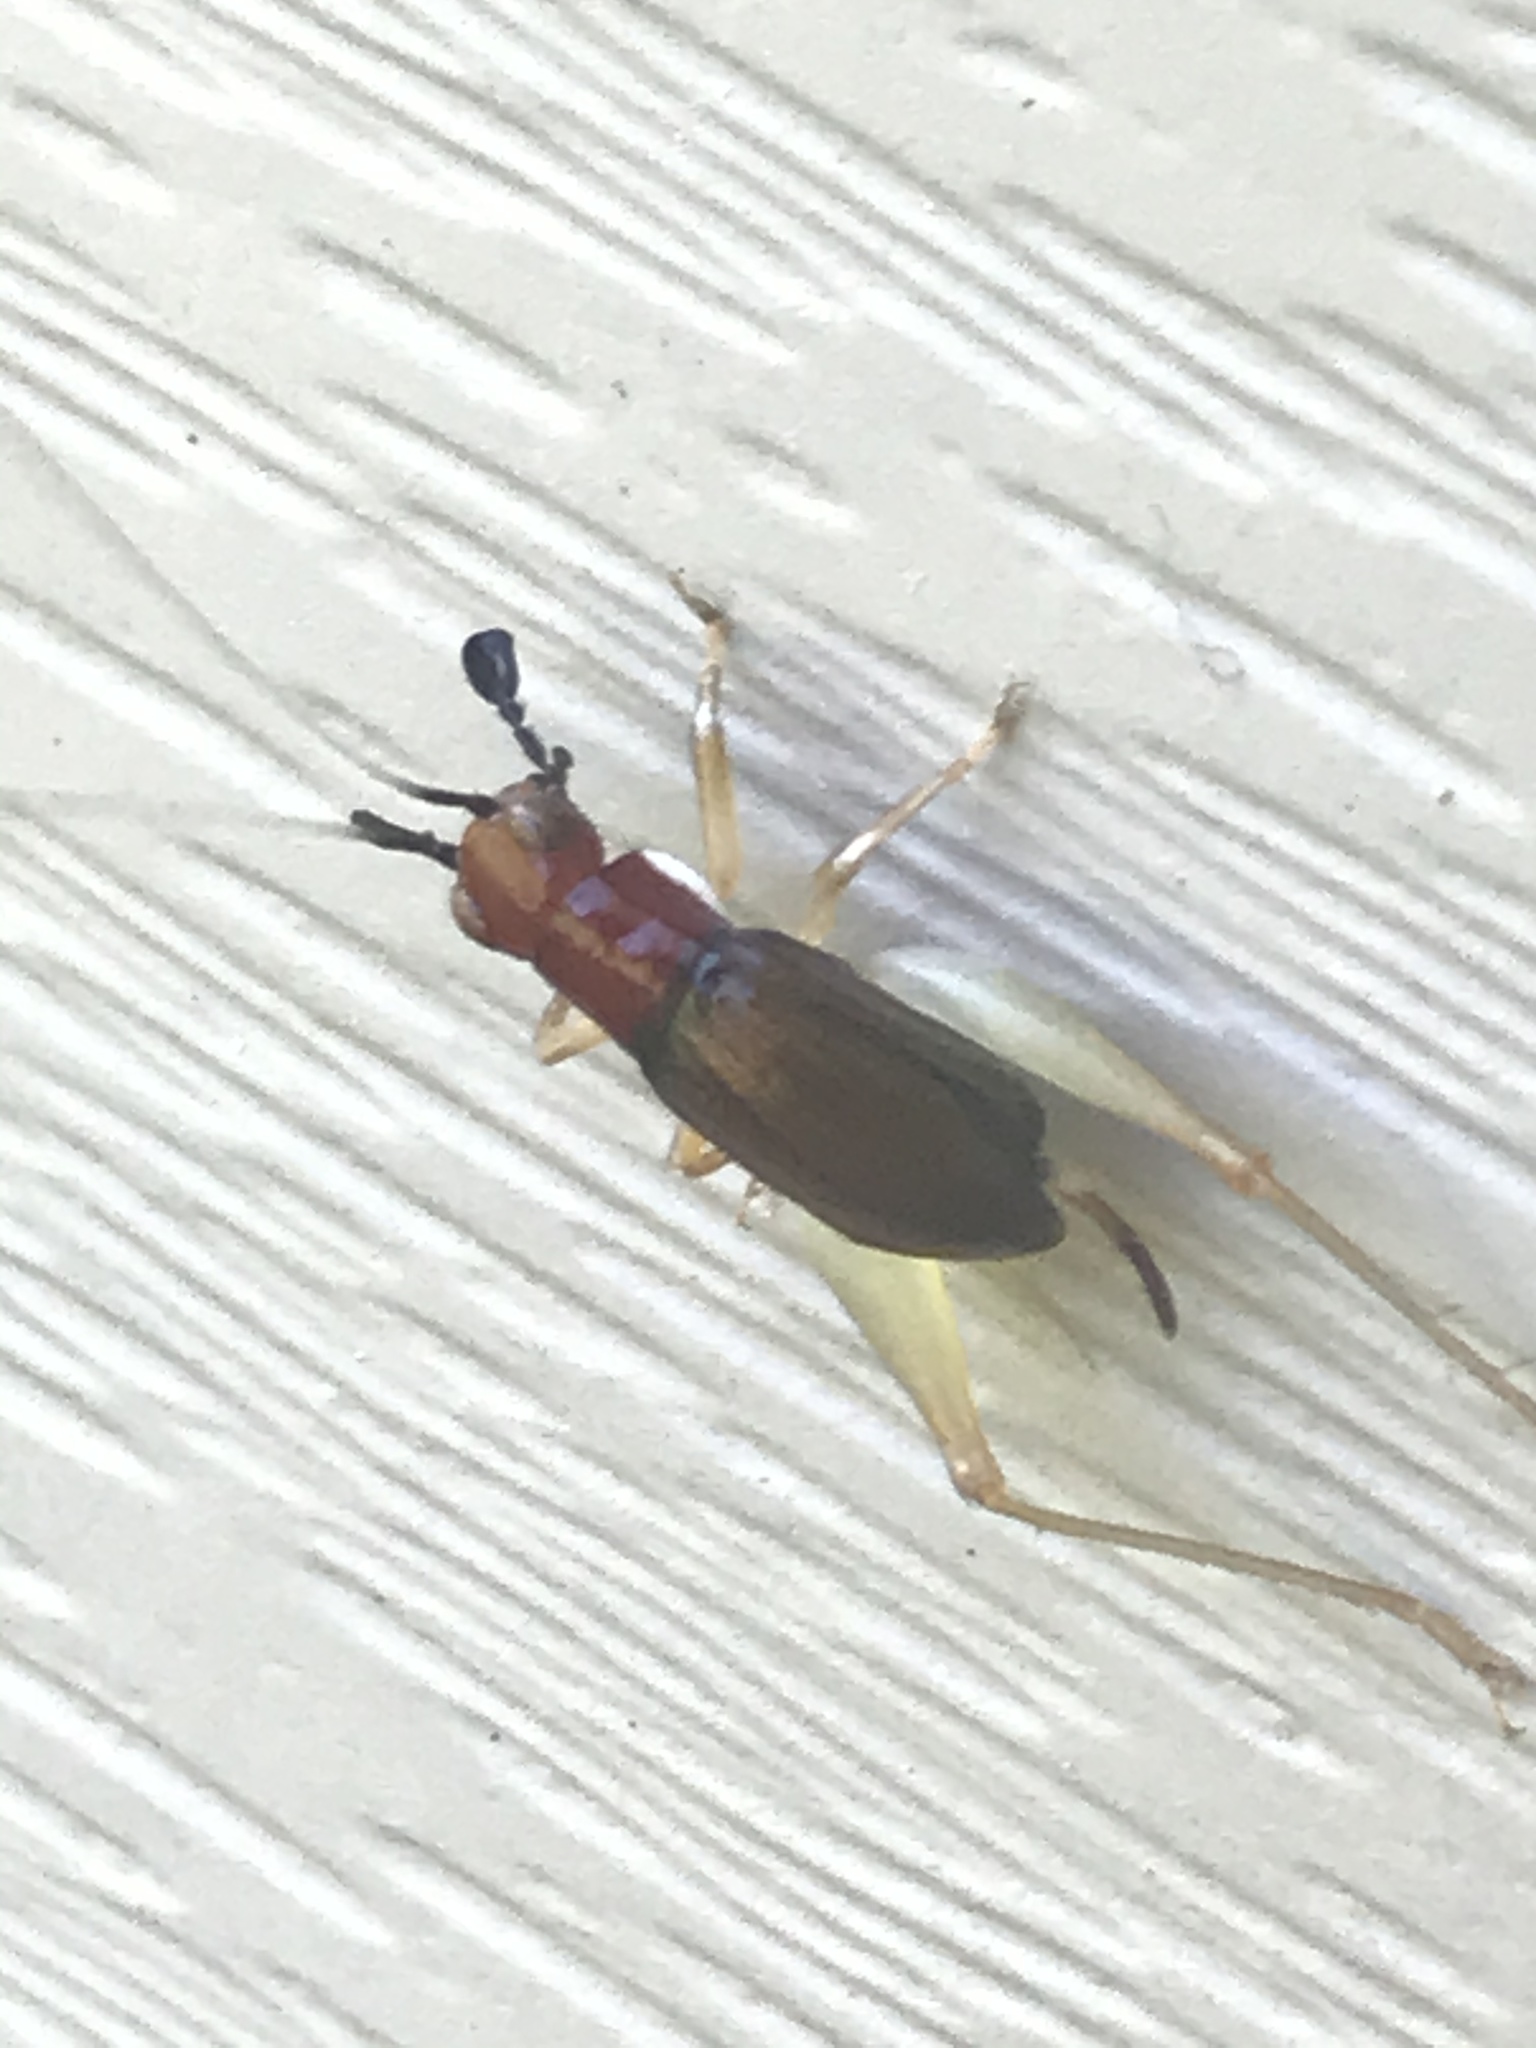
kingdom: Animalia
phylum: Arthropoda
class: Insecta
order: Orthoptera
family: Trigonidiidae
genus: Phyllopalpus
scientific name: Phyllopalpus pulchellus
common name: Handsome trig
